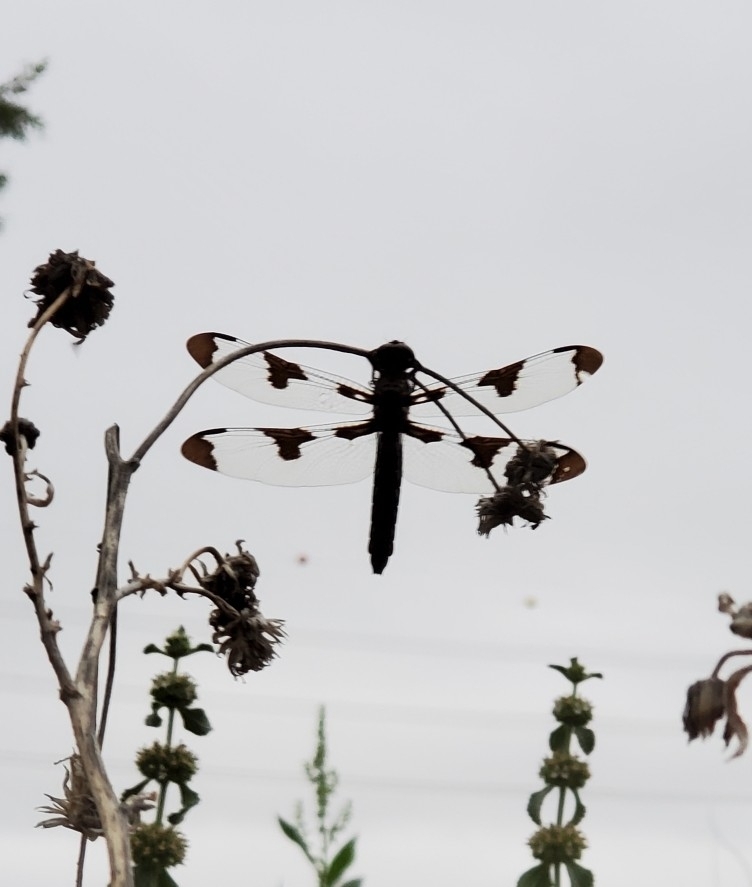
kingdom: Animalia
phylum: Arthropoda
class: Insecta
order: Odonata
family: Libellulidae
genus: Plathemis
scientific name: Plathemis lydia
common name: Common whitetail
